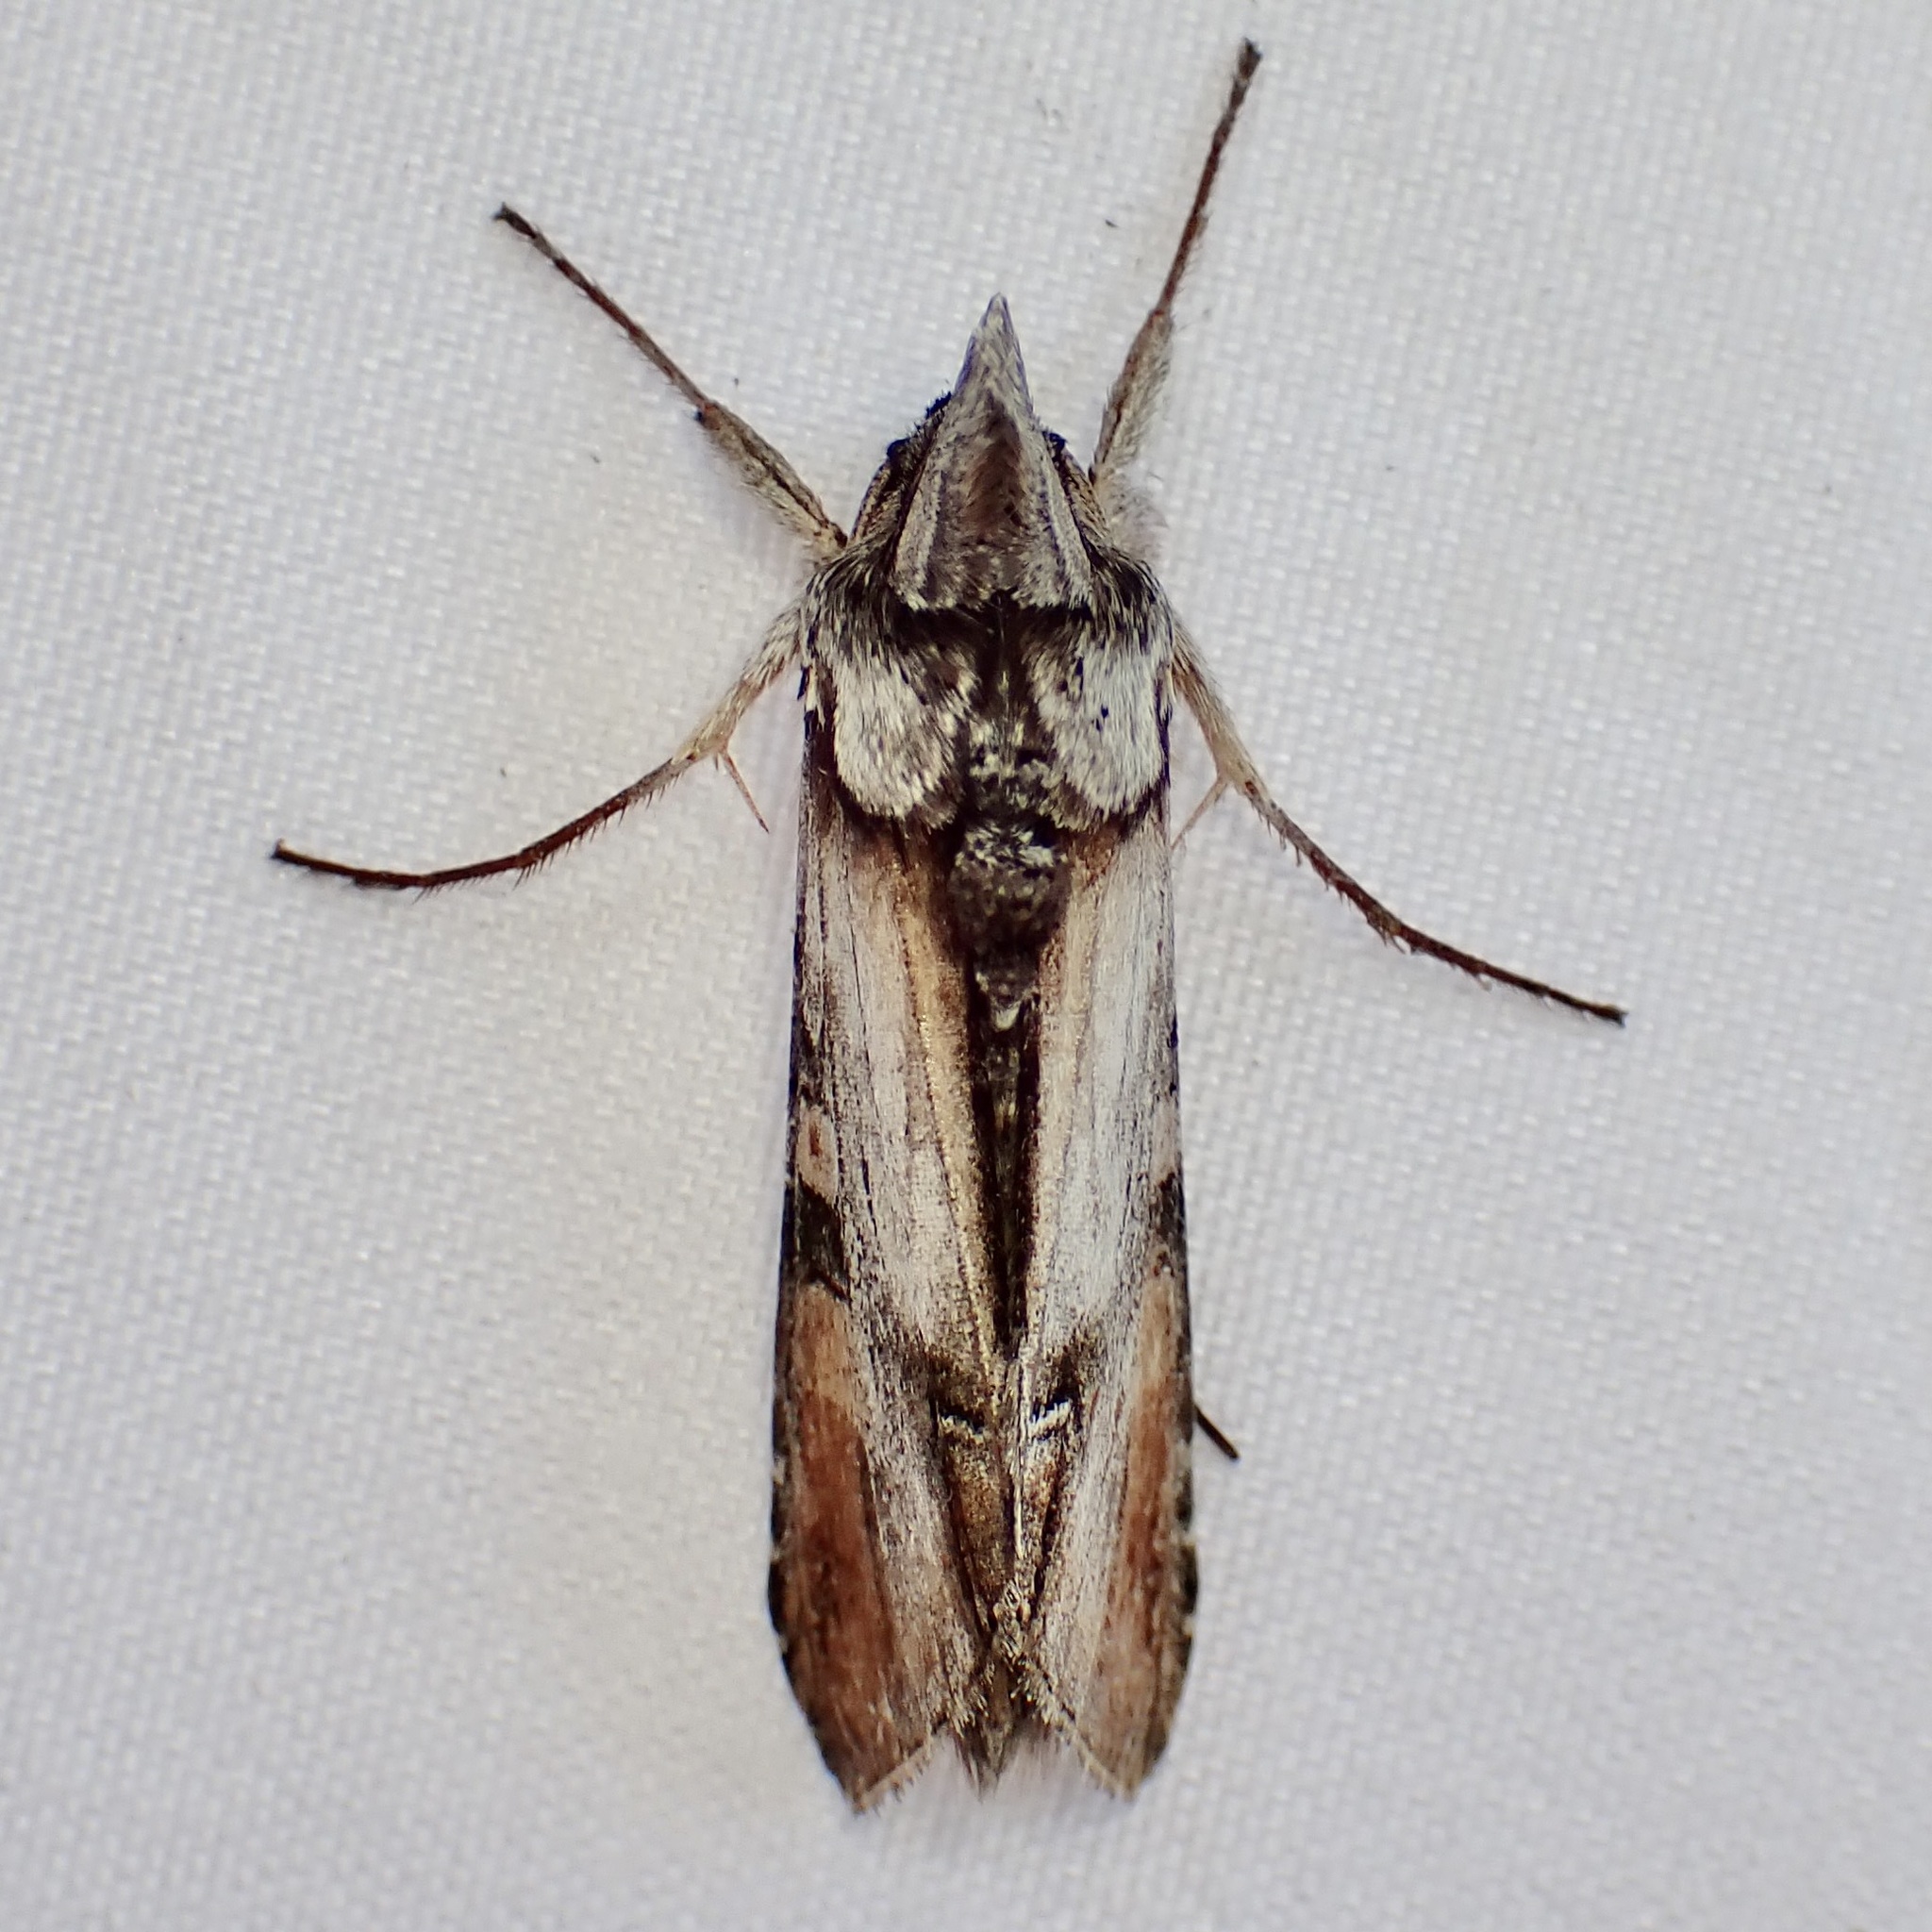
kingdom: Animalia
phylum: Arthropoda
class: Insecta
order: Lepidoptera
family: Noctuidae
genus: Cucullia
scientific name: Cucullia lilacina
